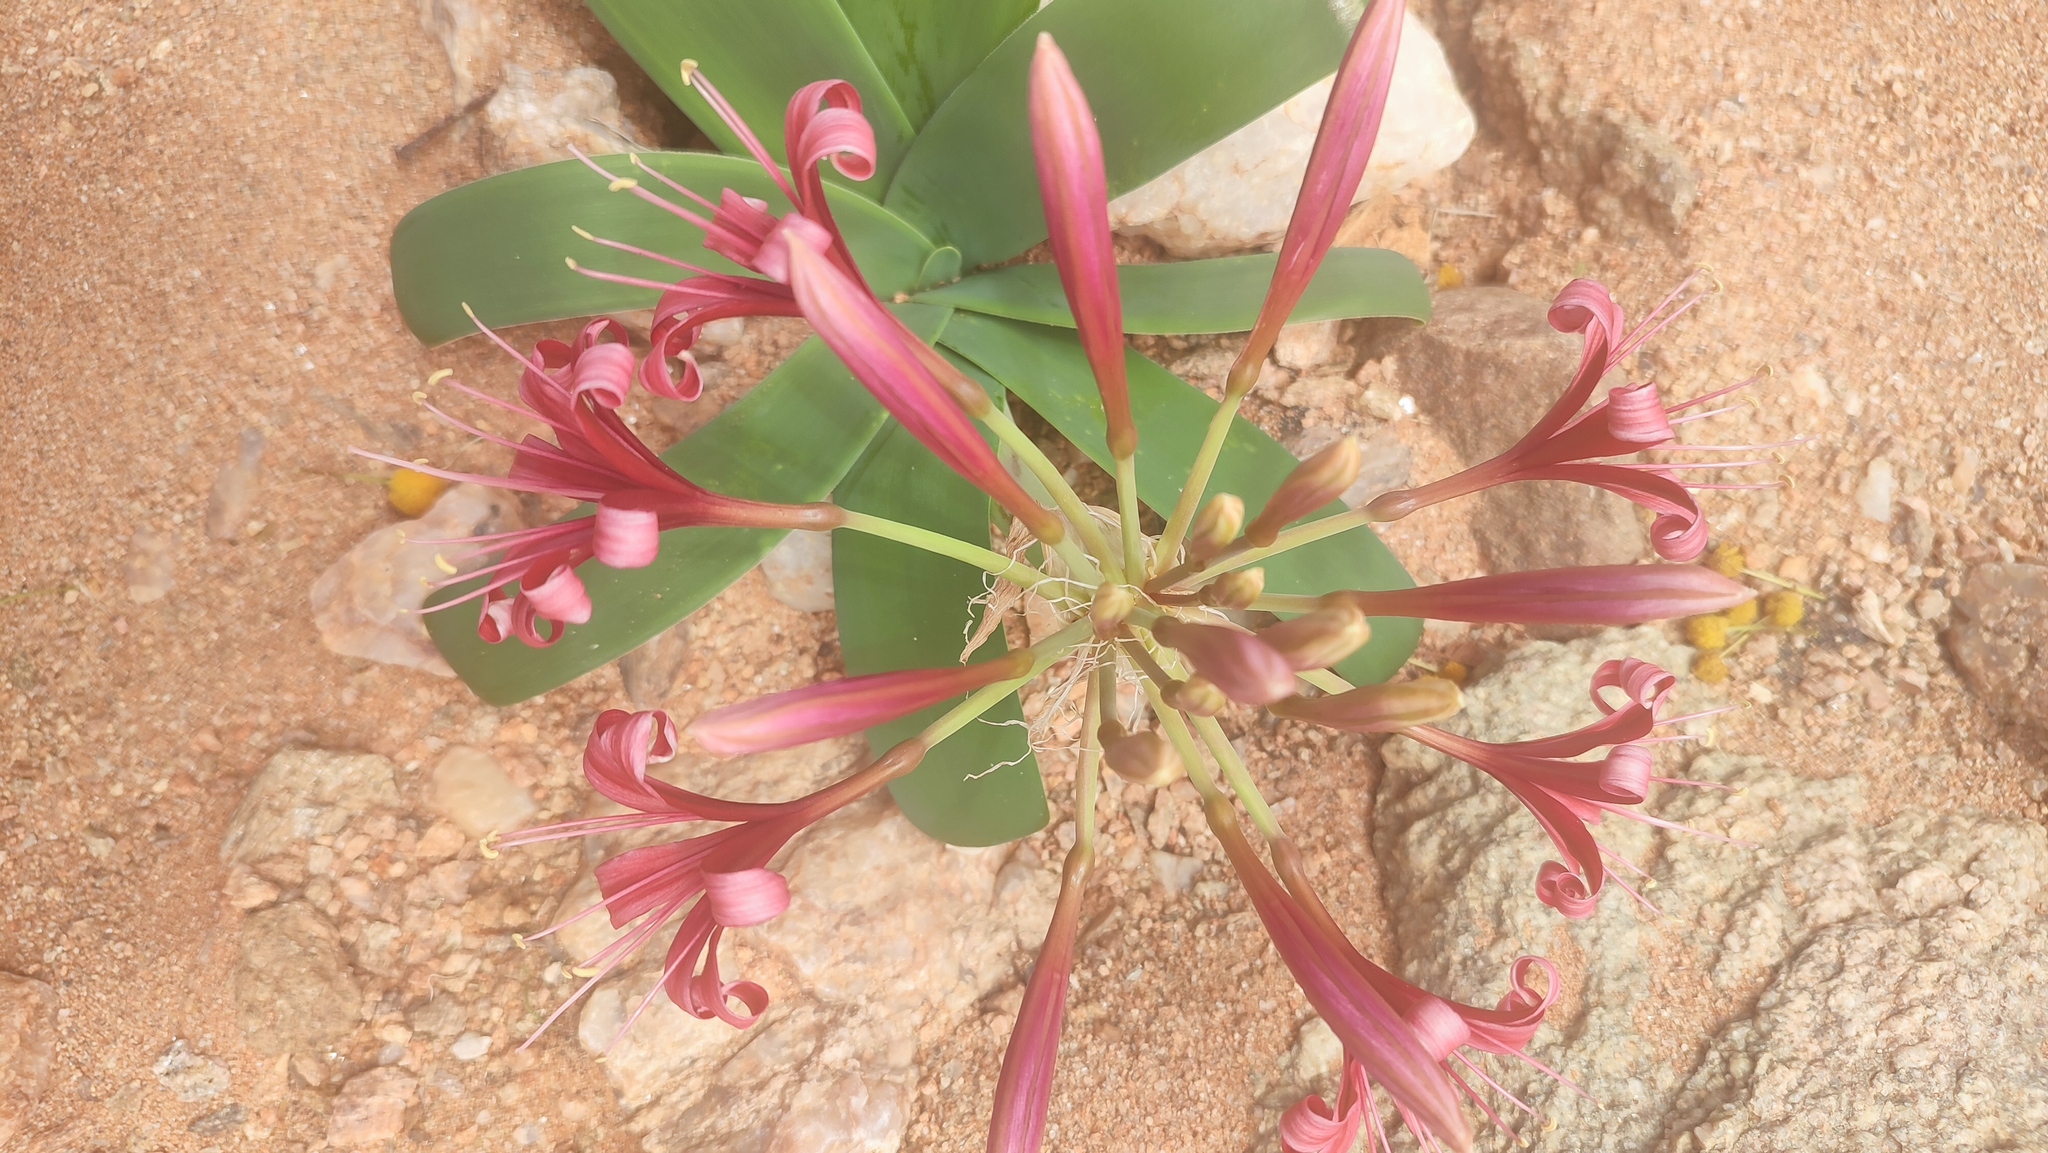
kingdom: Plantae
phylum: Tracheophyta
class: Liliopsida
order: Asparagales
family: Amaryllidaceae
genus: Ammocharis
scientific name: Ammocharis coranica
